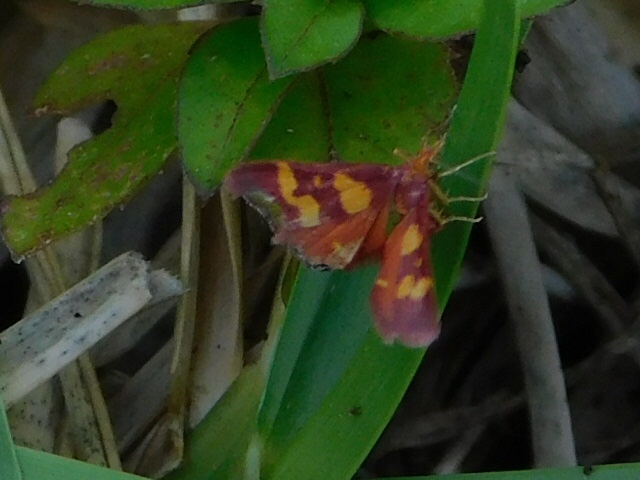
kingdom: Animalia
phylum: Arthropoda
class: Insecta
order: Lepidoptera
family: Crambidae
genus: Pyrausta
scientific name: Pyrausta tyralis
